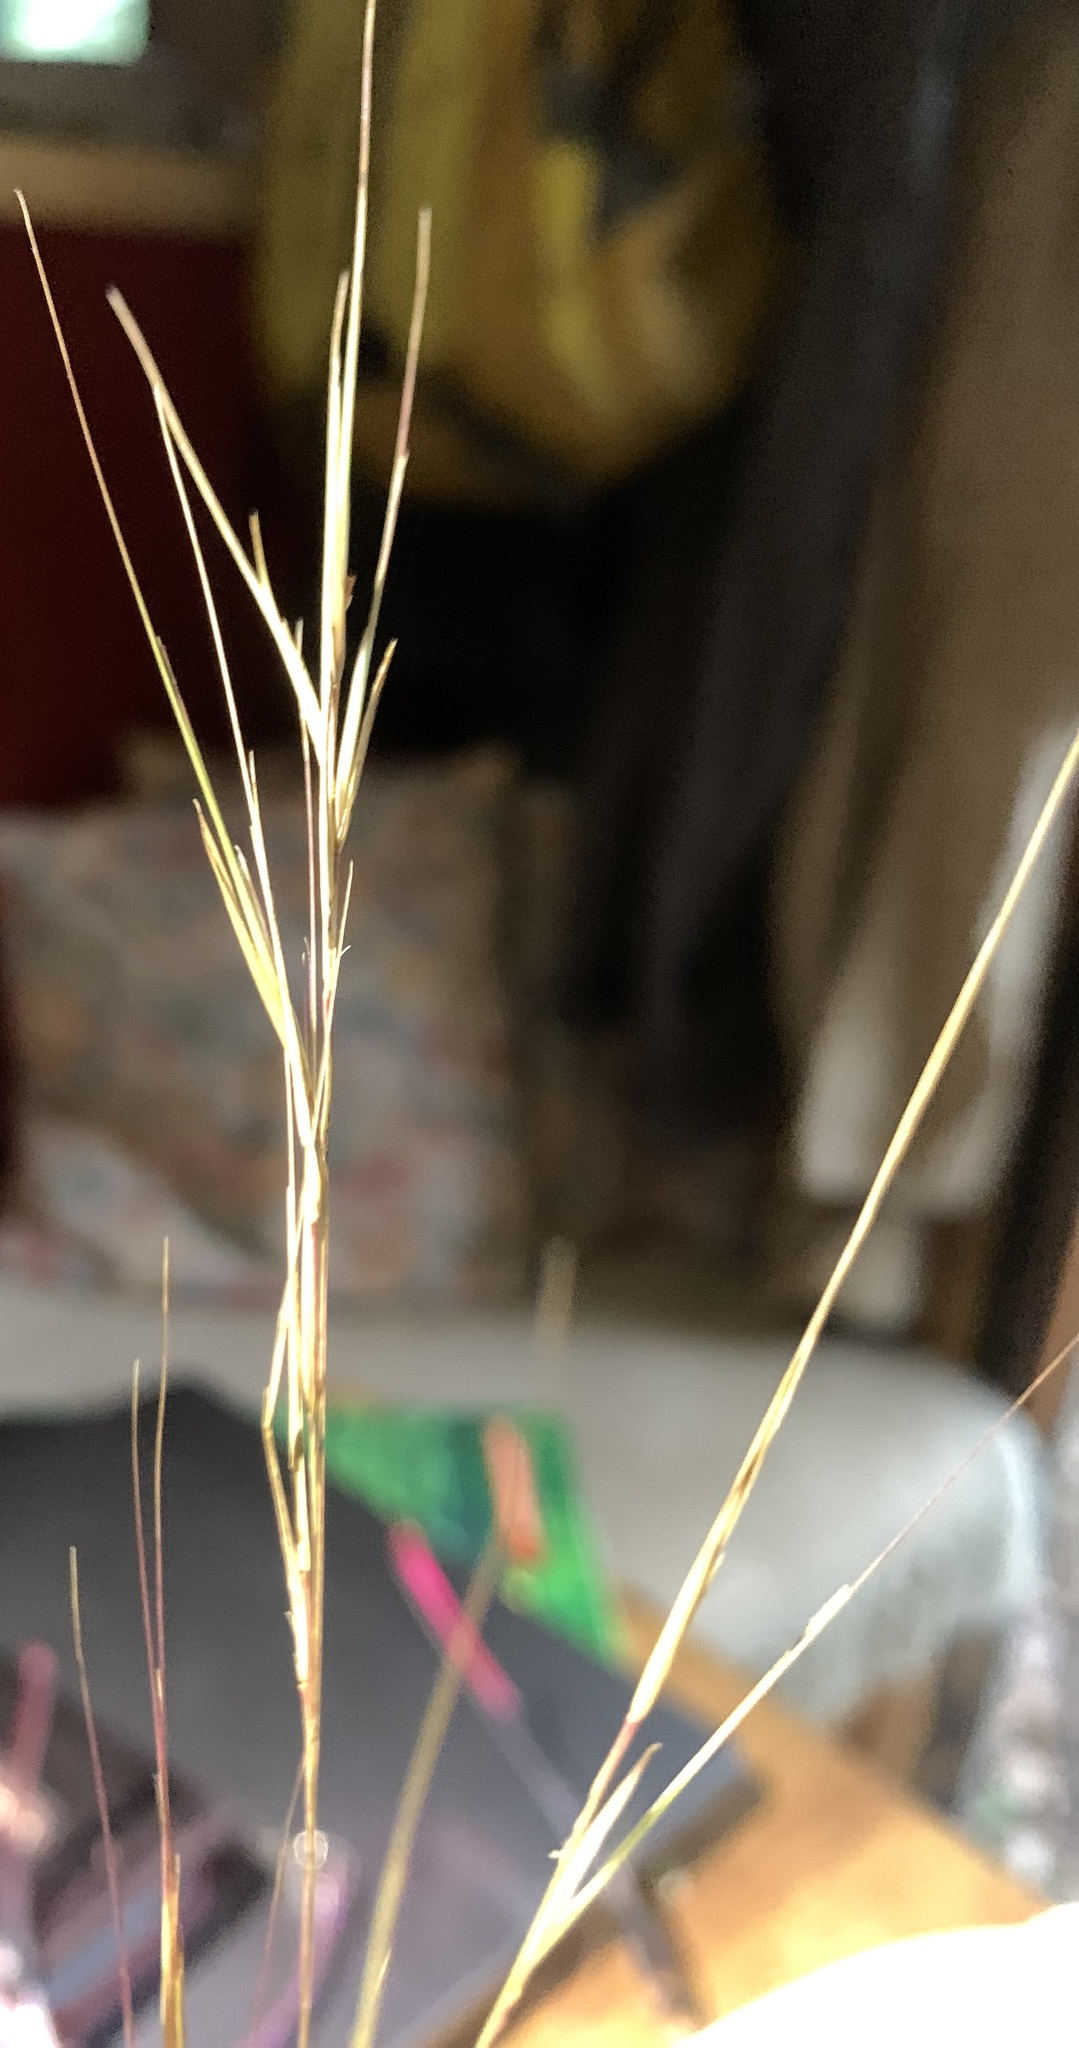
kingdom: Plantae
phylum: Tracheophyta
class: Liliopsida
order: Poales
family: Poaceae
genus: Aristida
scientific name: Aristida patula
